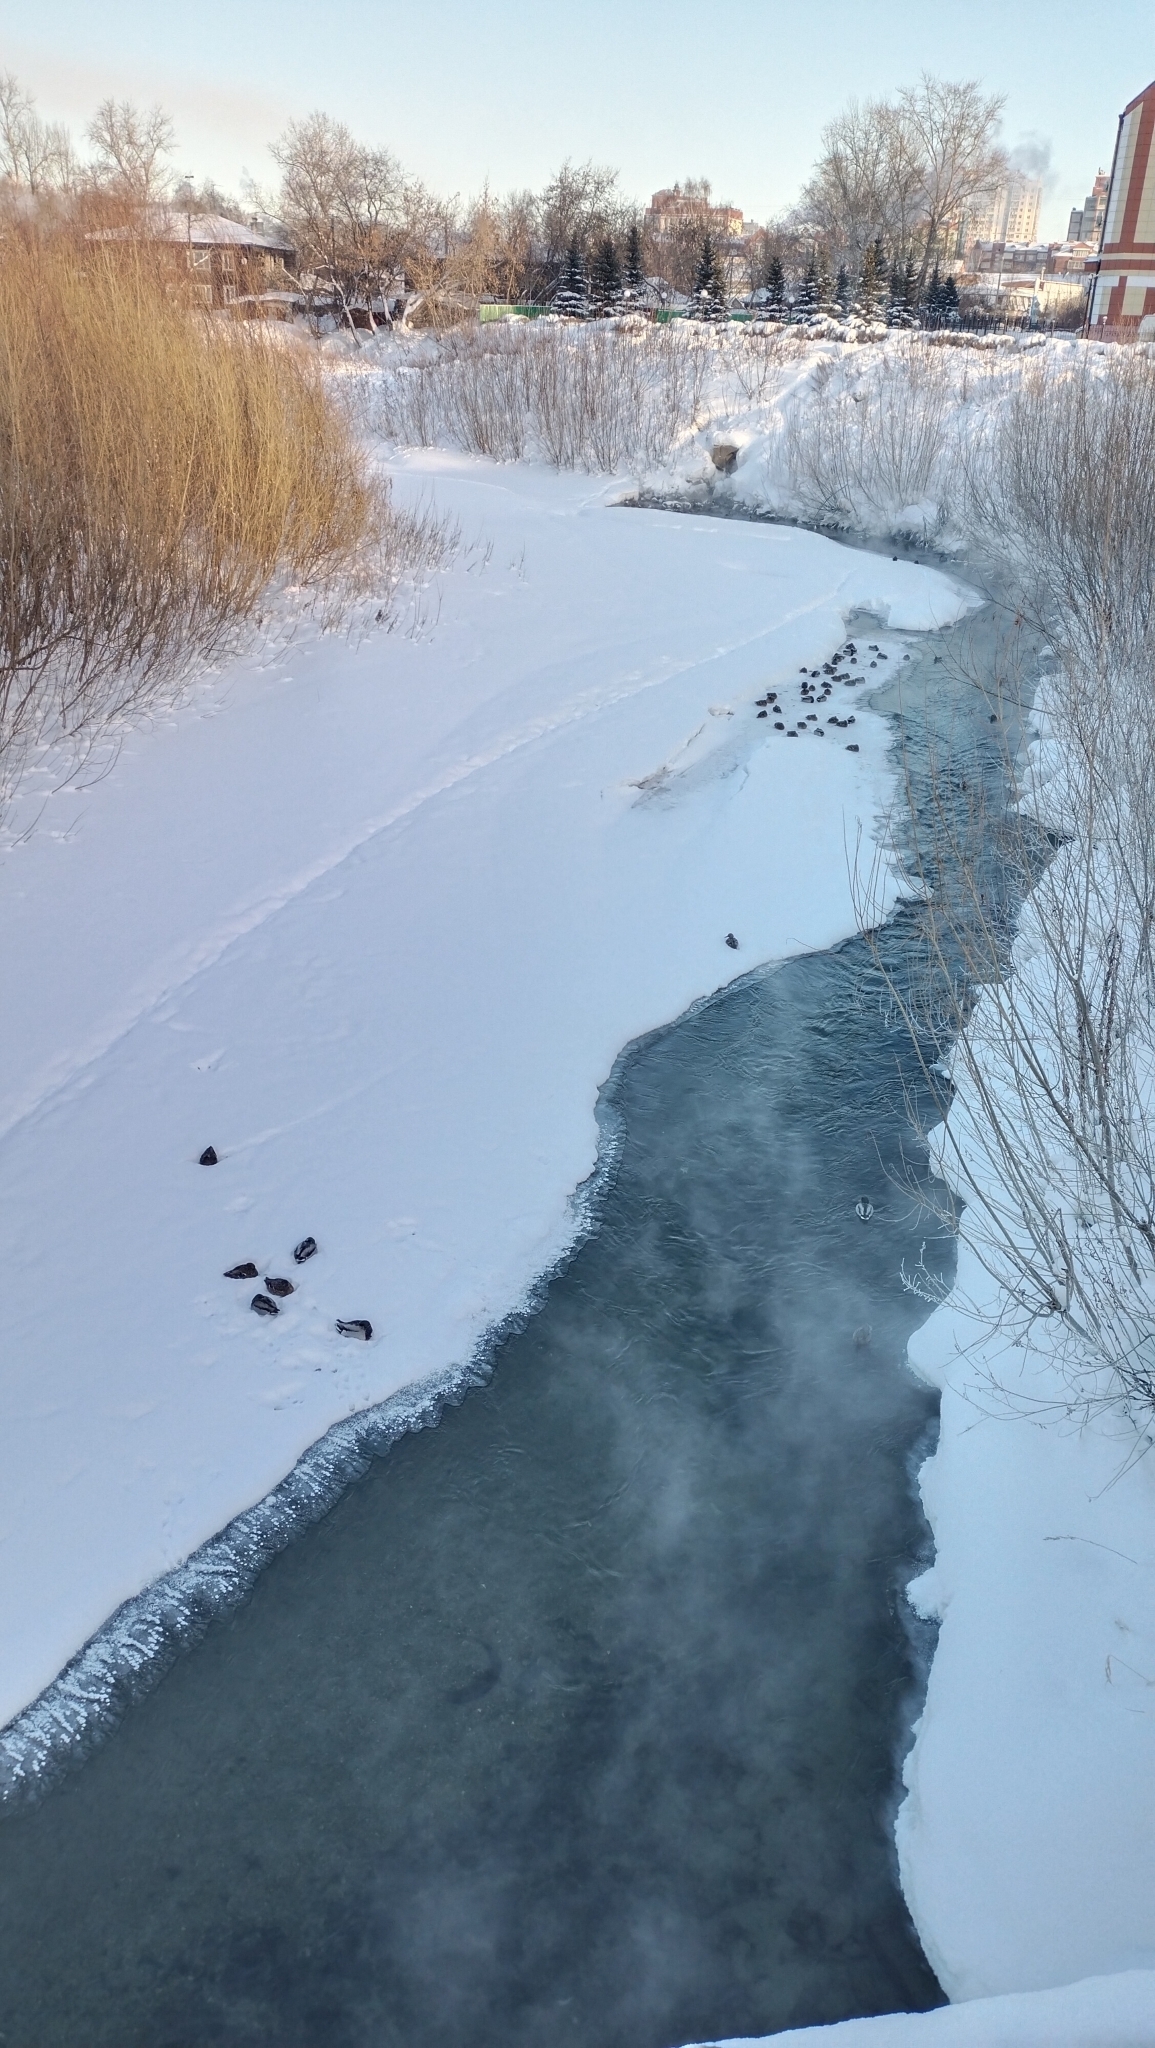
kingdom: Animalia
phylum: Chordata
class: Aves
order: Anseriformes
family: Anatidae
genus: Anas
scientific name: Anas platyrhynchos
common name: Mallard
